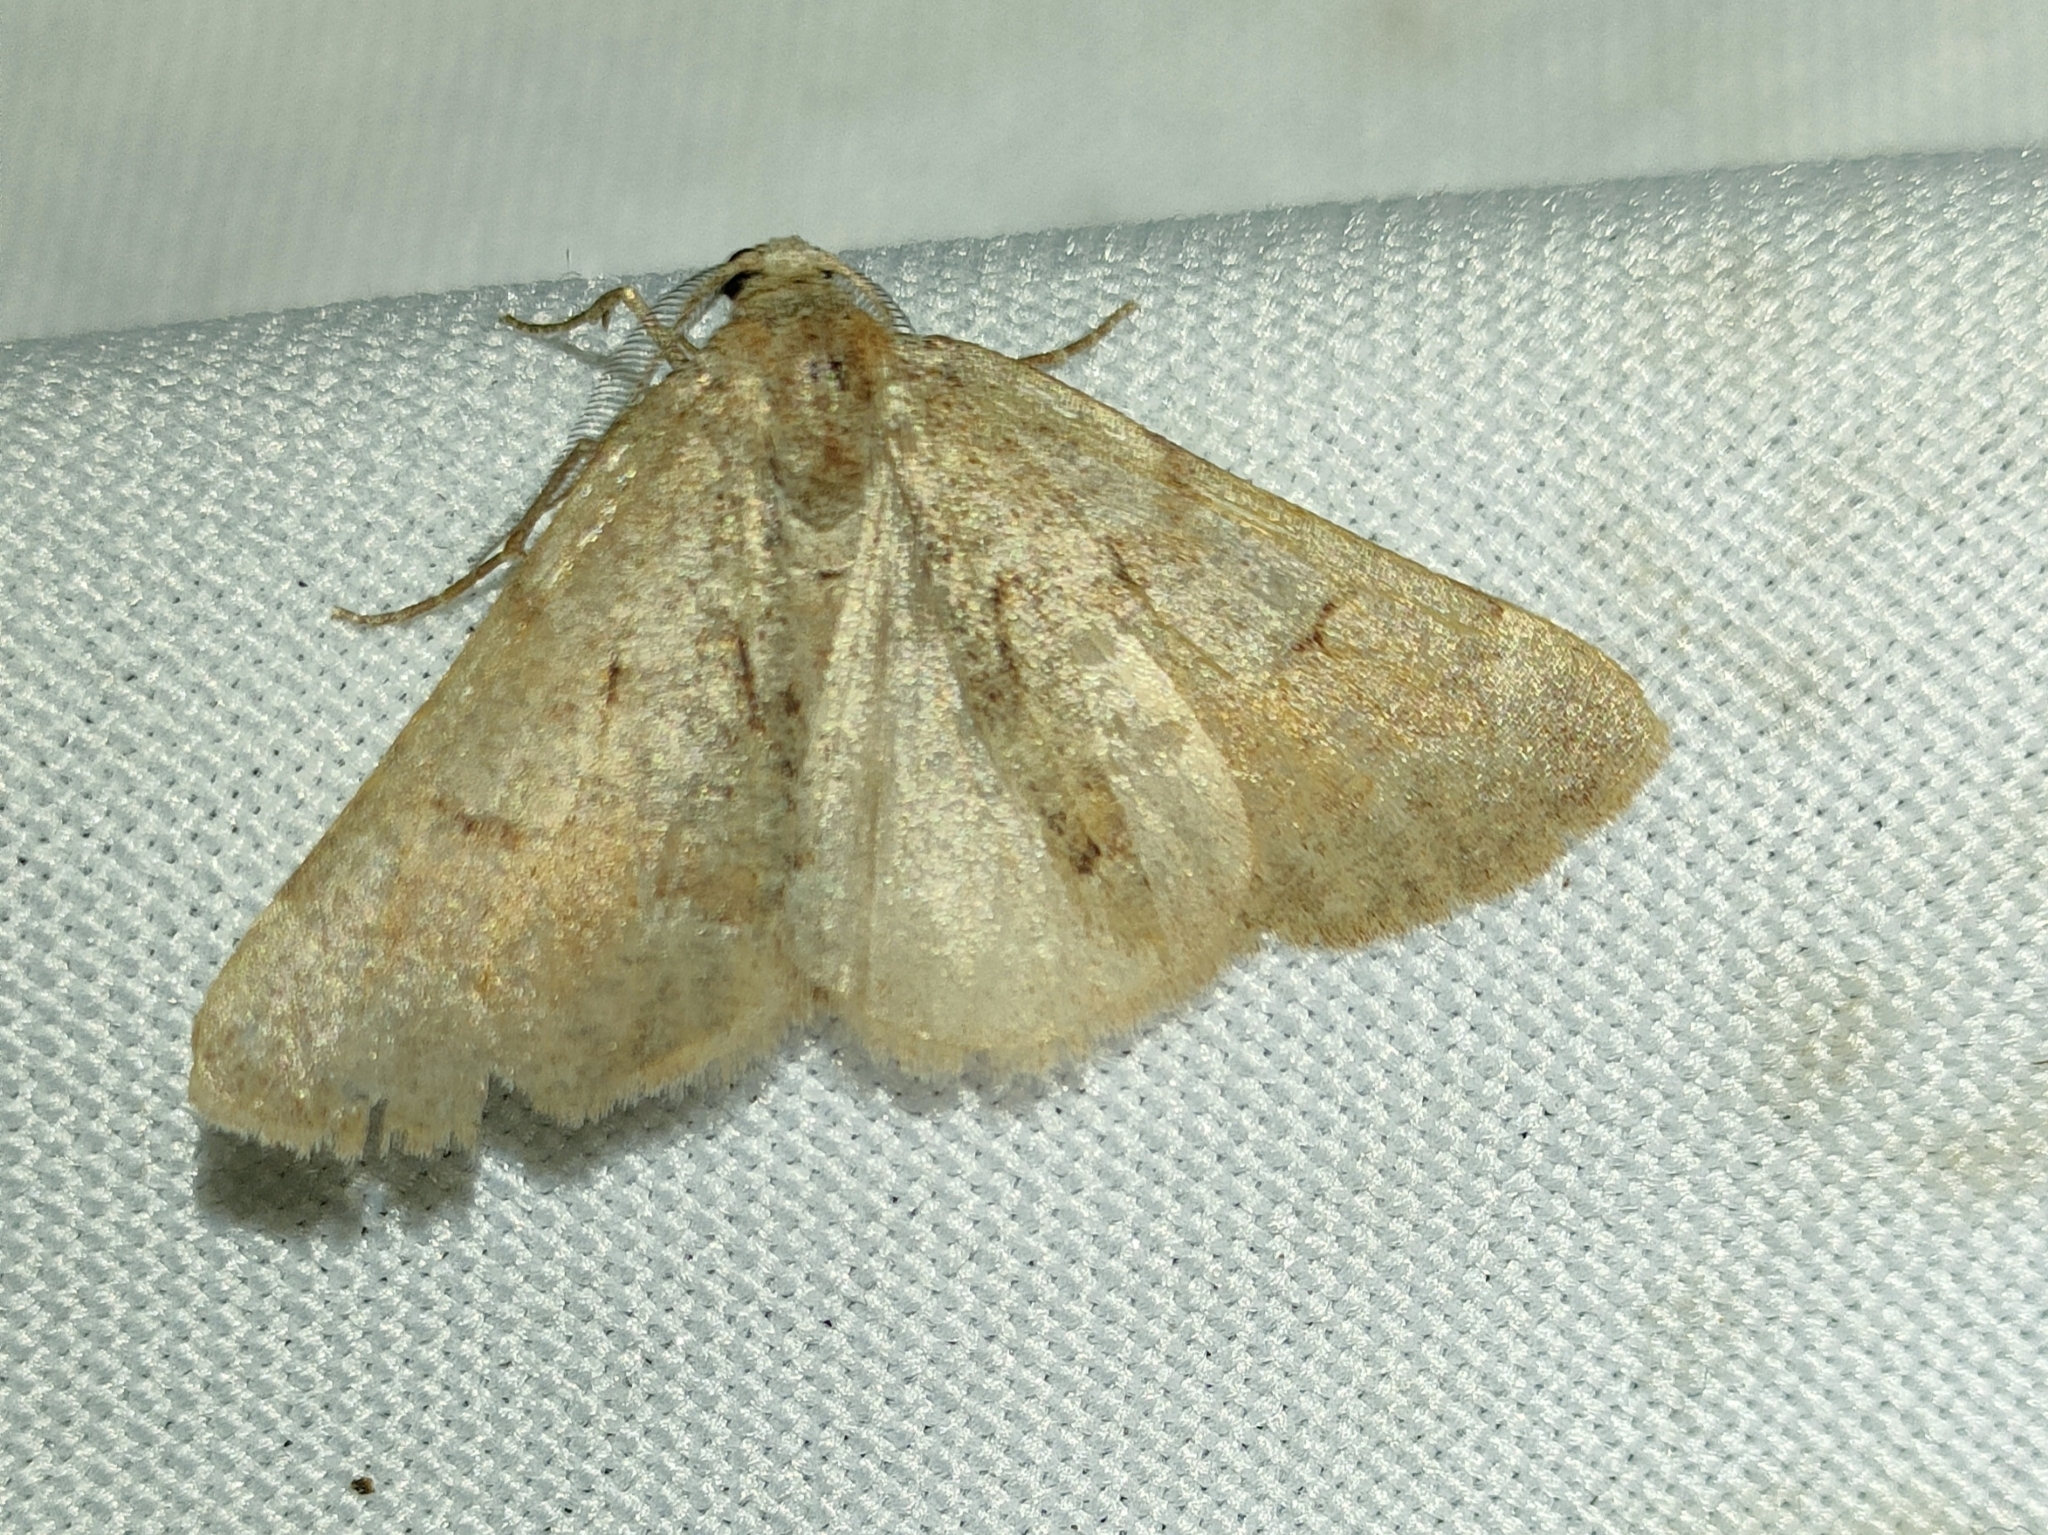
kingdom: Animalia
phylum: Arthropoda
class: Insecta
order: Lepidoptera
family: Geometridae
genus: Adalbertia
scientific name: Adalbertia castiliaria
